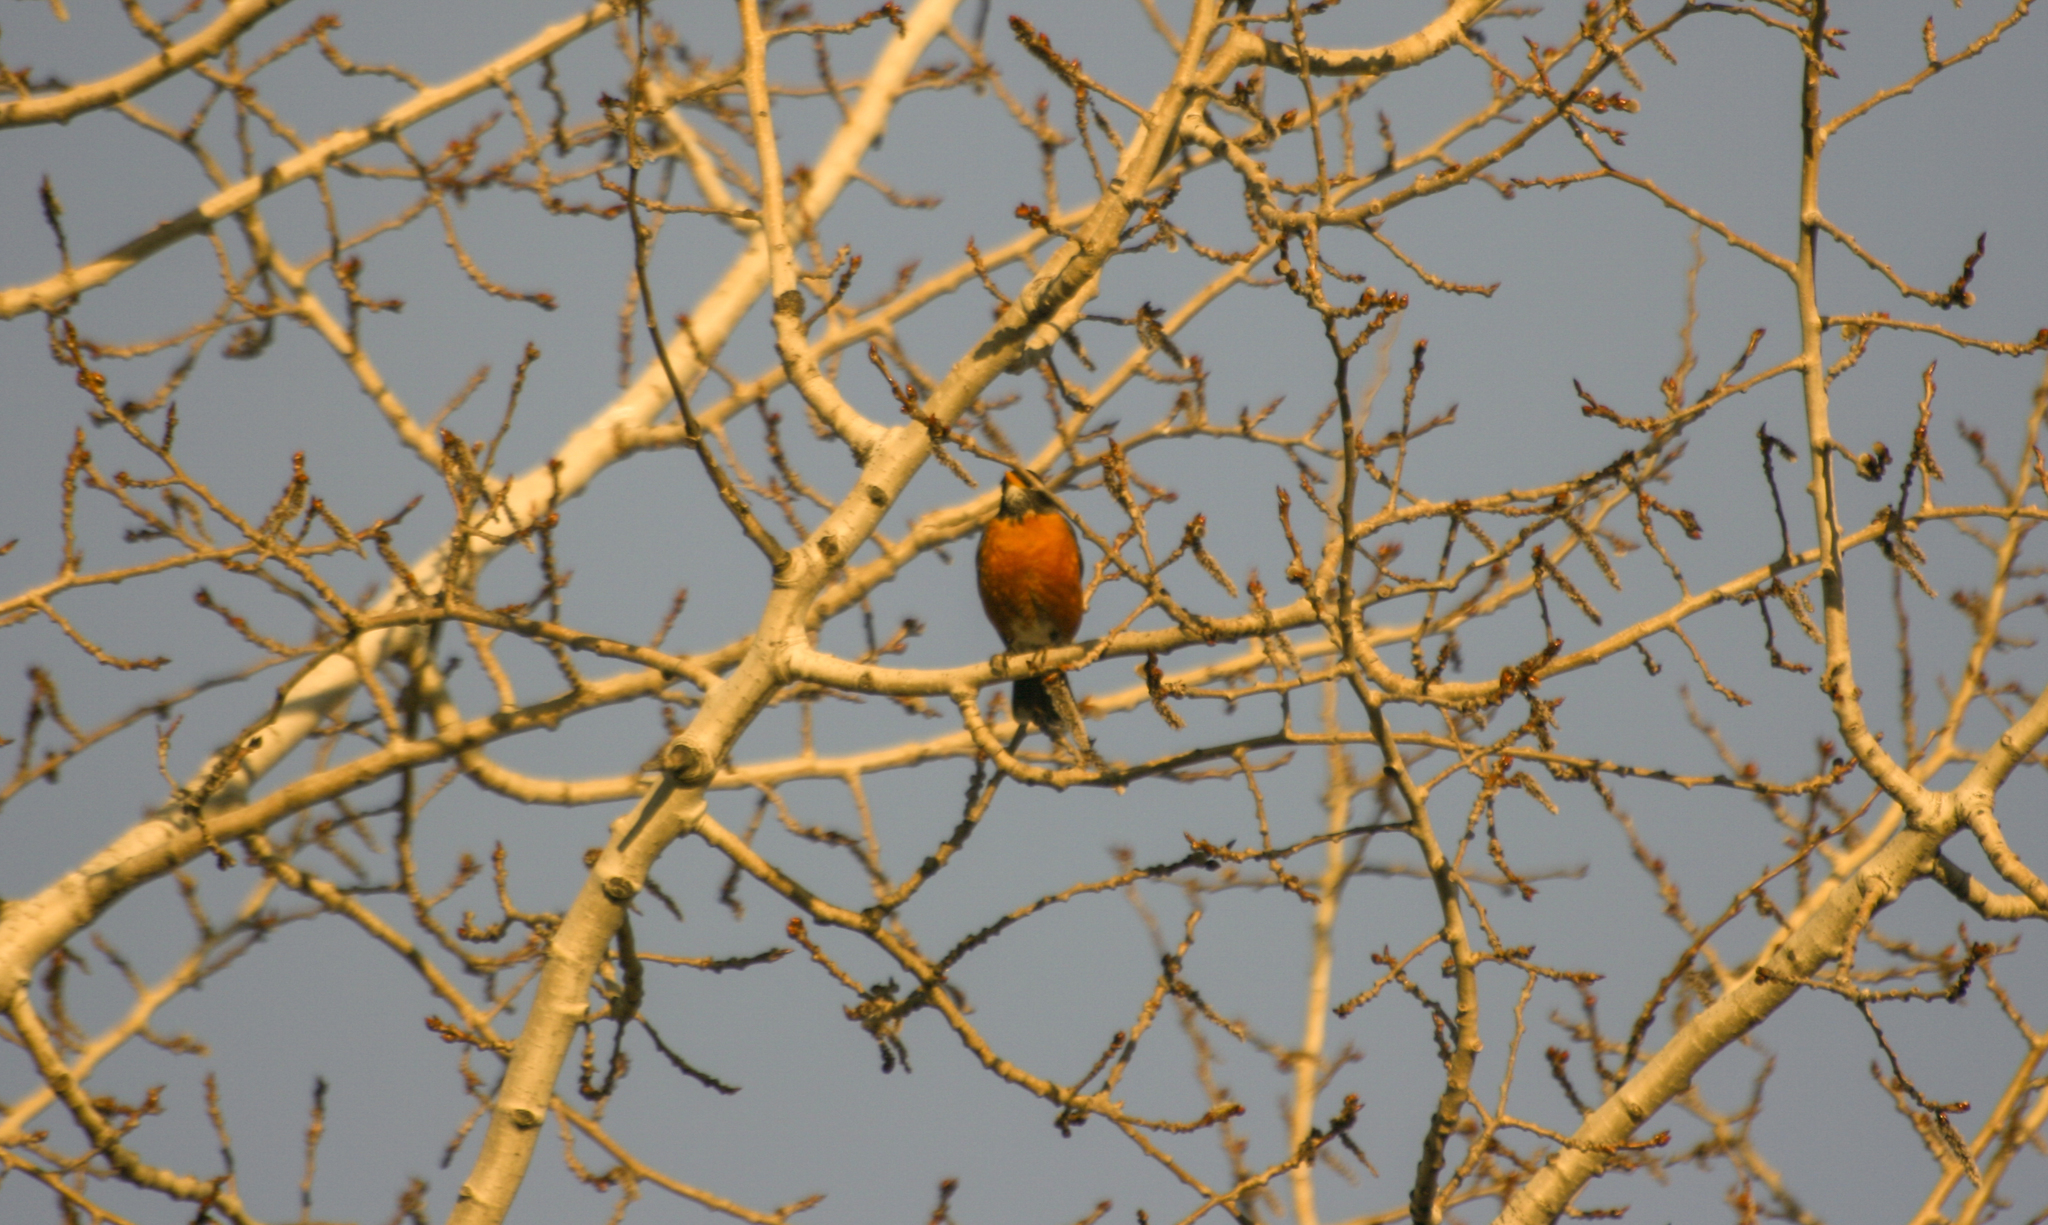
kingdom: Animalia
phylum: Chordata
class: Aves
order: Passeriformes
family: Turdidae
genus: Turdus
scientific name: Turdus migratorius
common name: American robin
